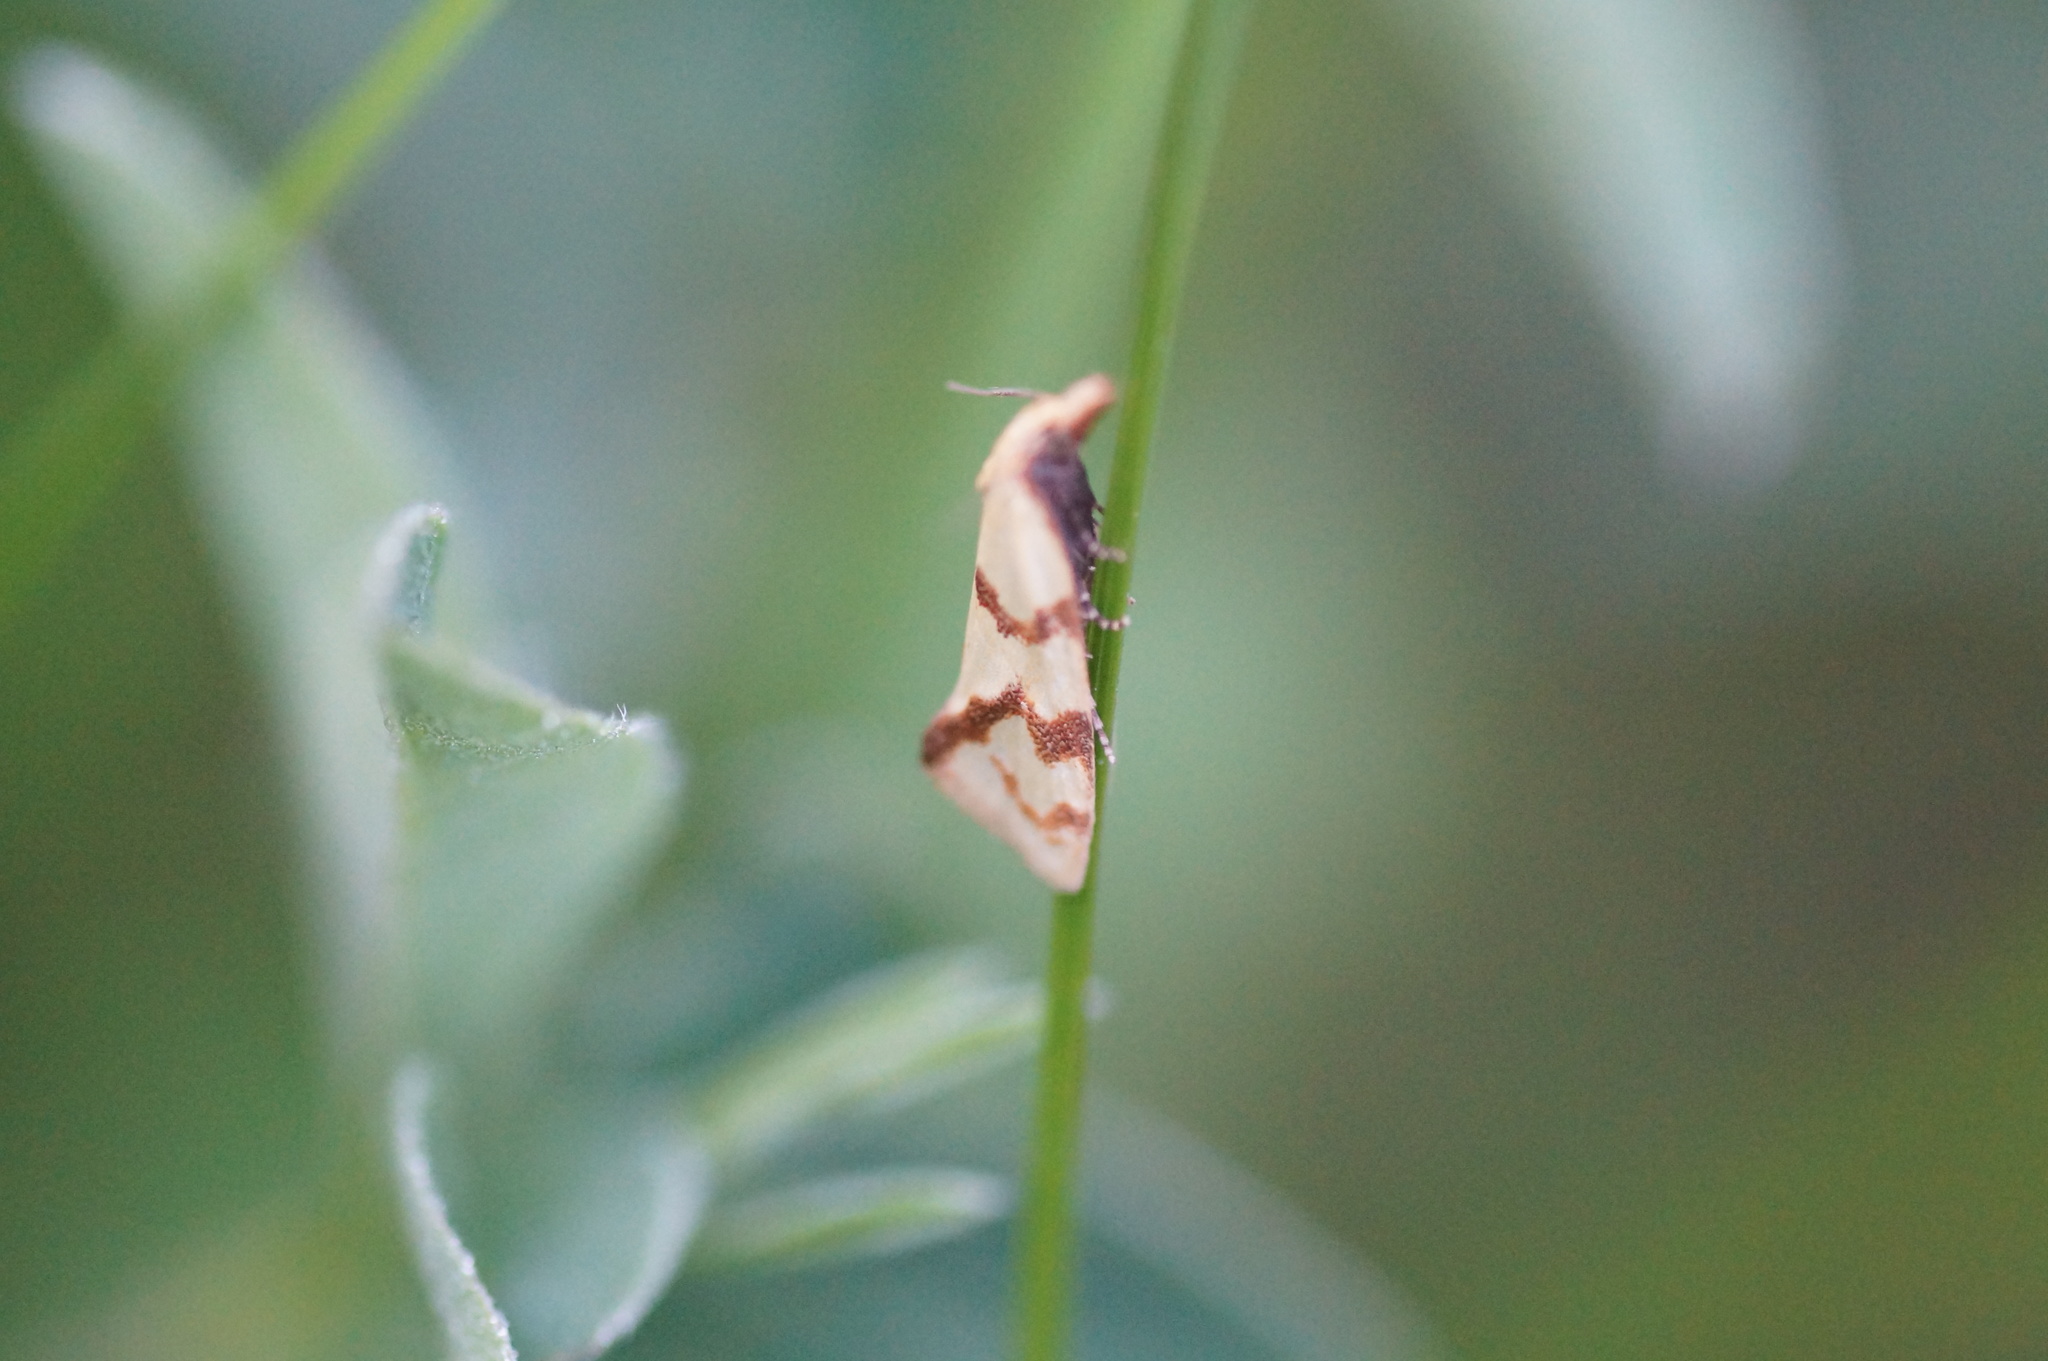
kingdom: Animalia
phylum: Arthropoda
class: Insecta
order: Lepidoptera
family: Tortricidae
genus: Agapeta
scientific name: Agapeta hamana
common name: Common yellow conch
